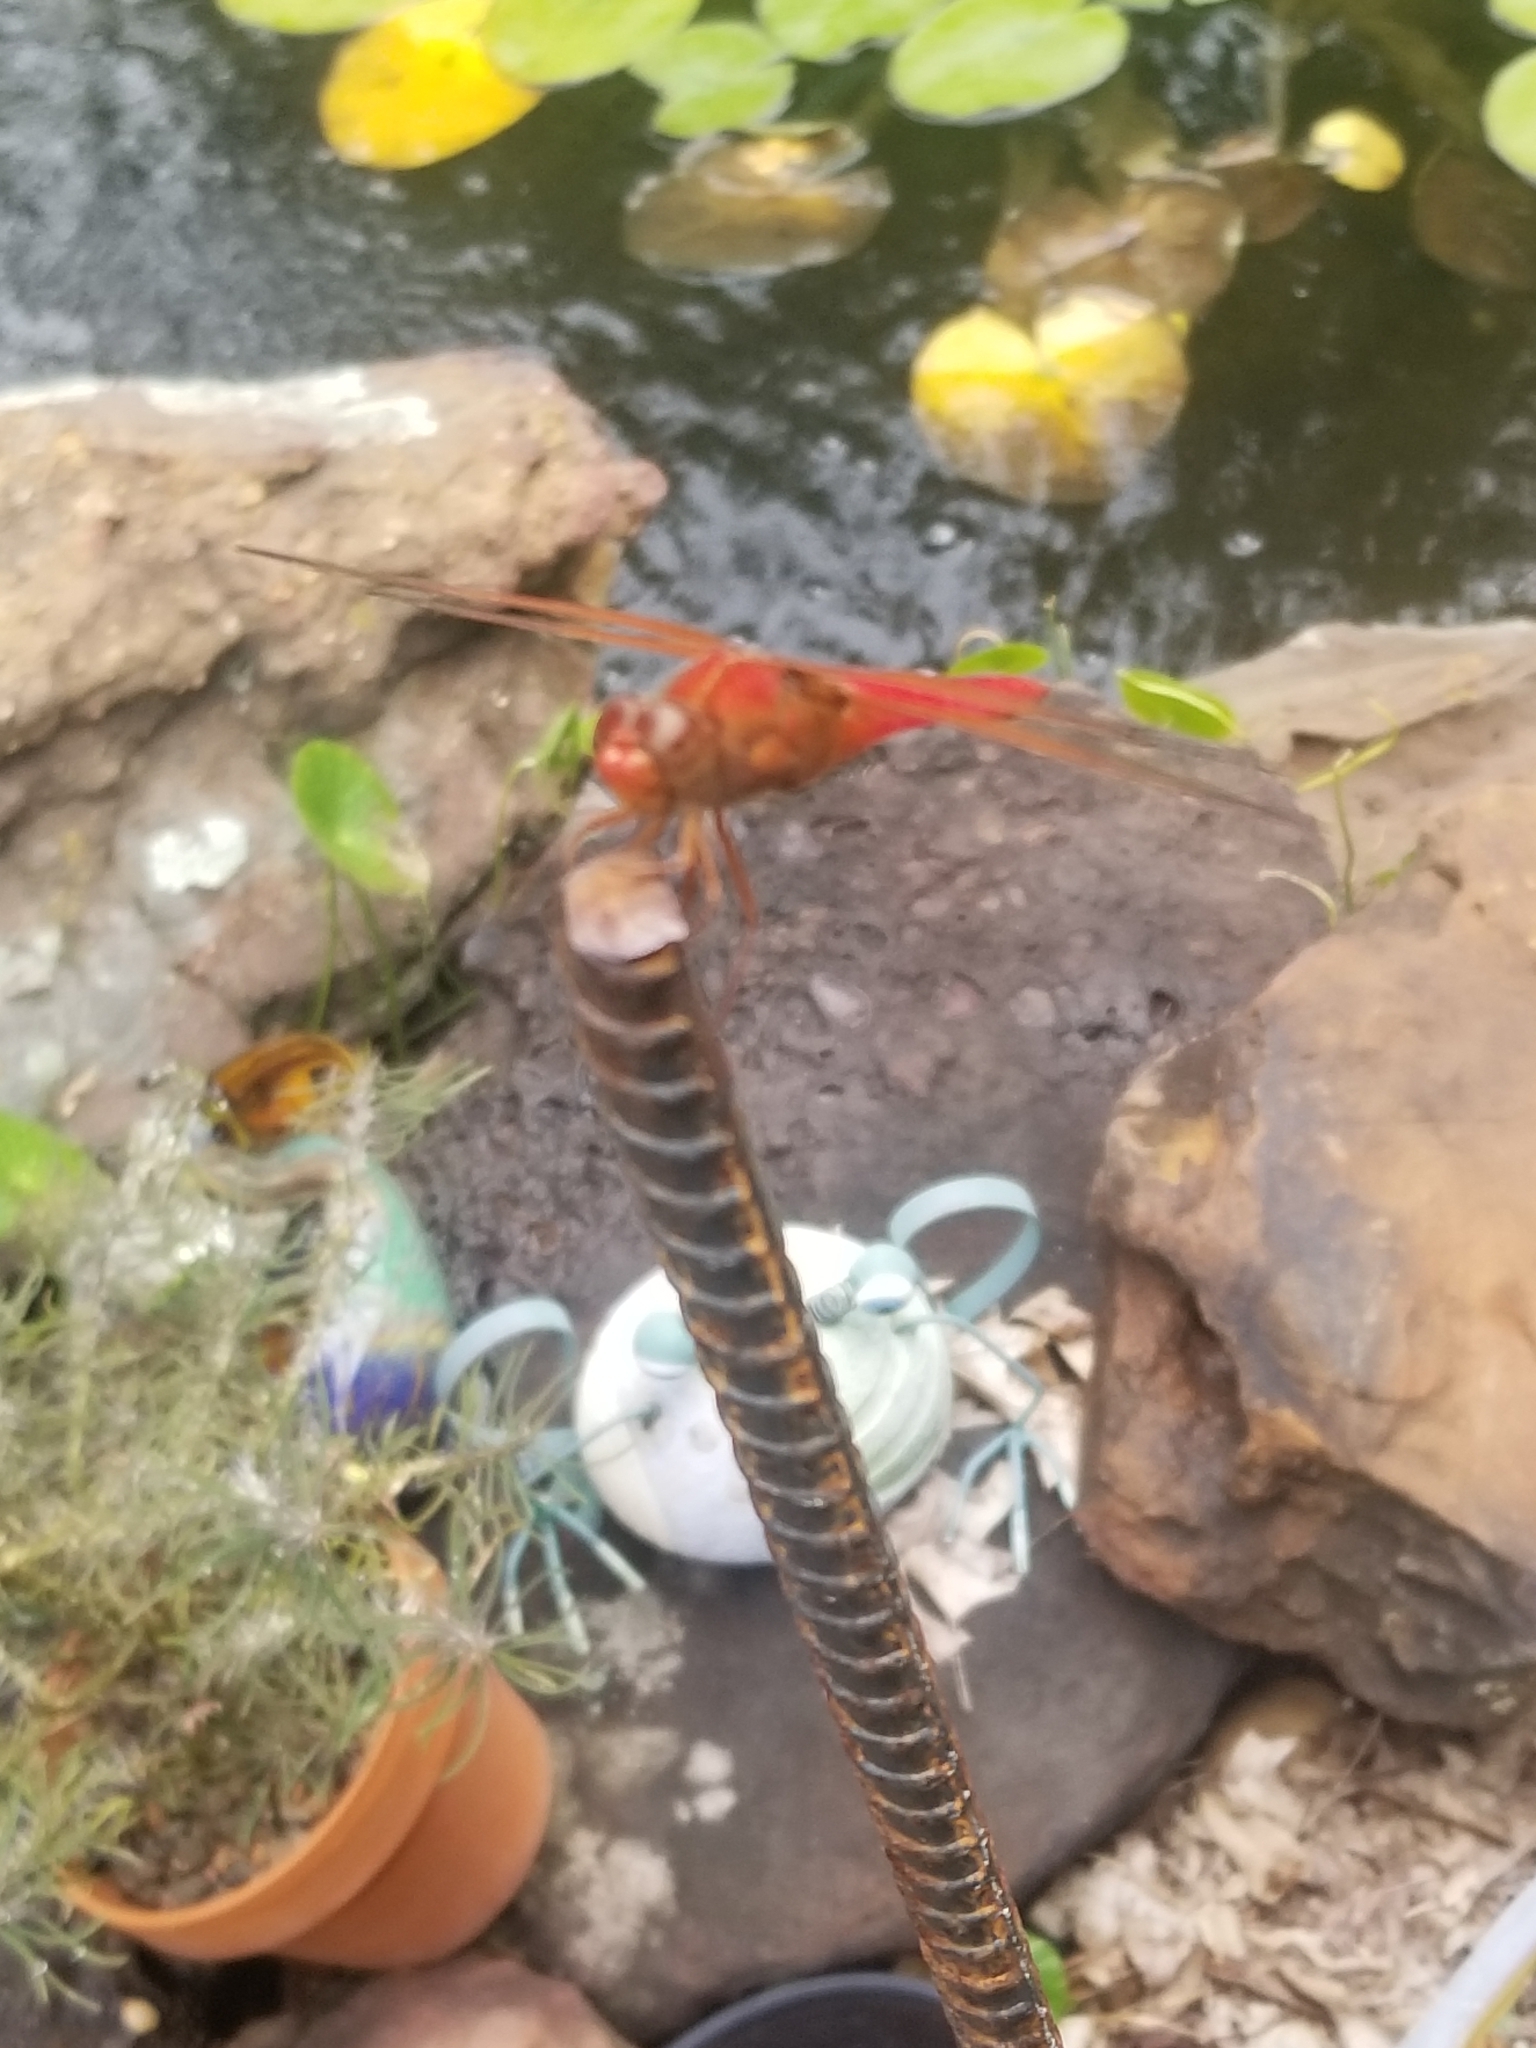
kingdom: Animalia
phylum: Arthropoda
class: Insecta
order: Odonata
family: Libellulidae
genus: Libellula
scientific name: Libellula croceipennis
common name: Neon skimmer
